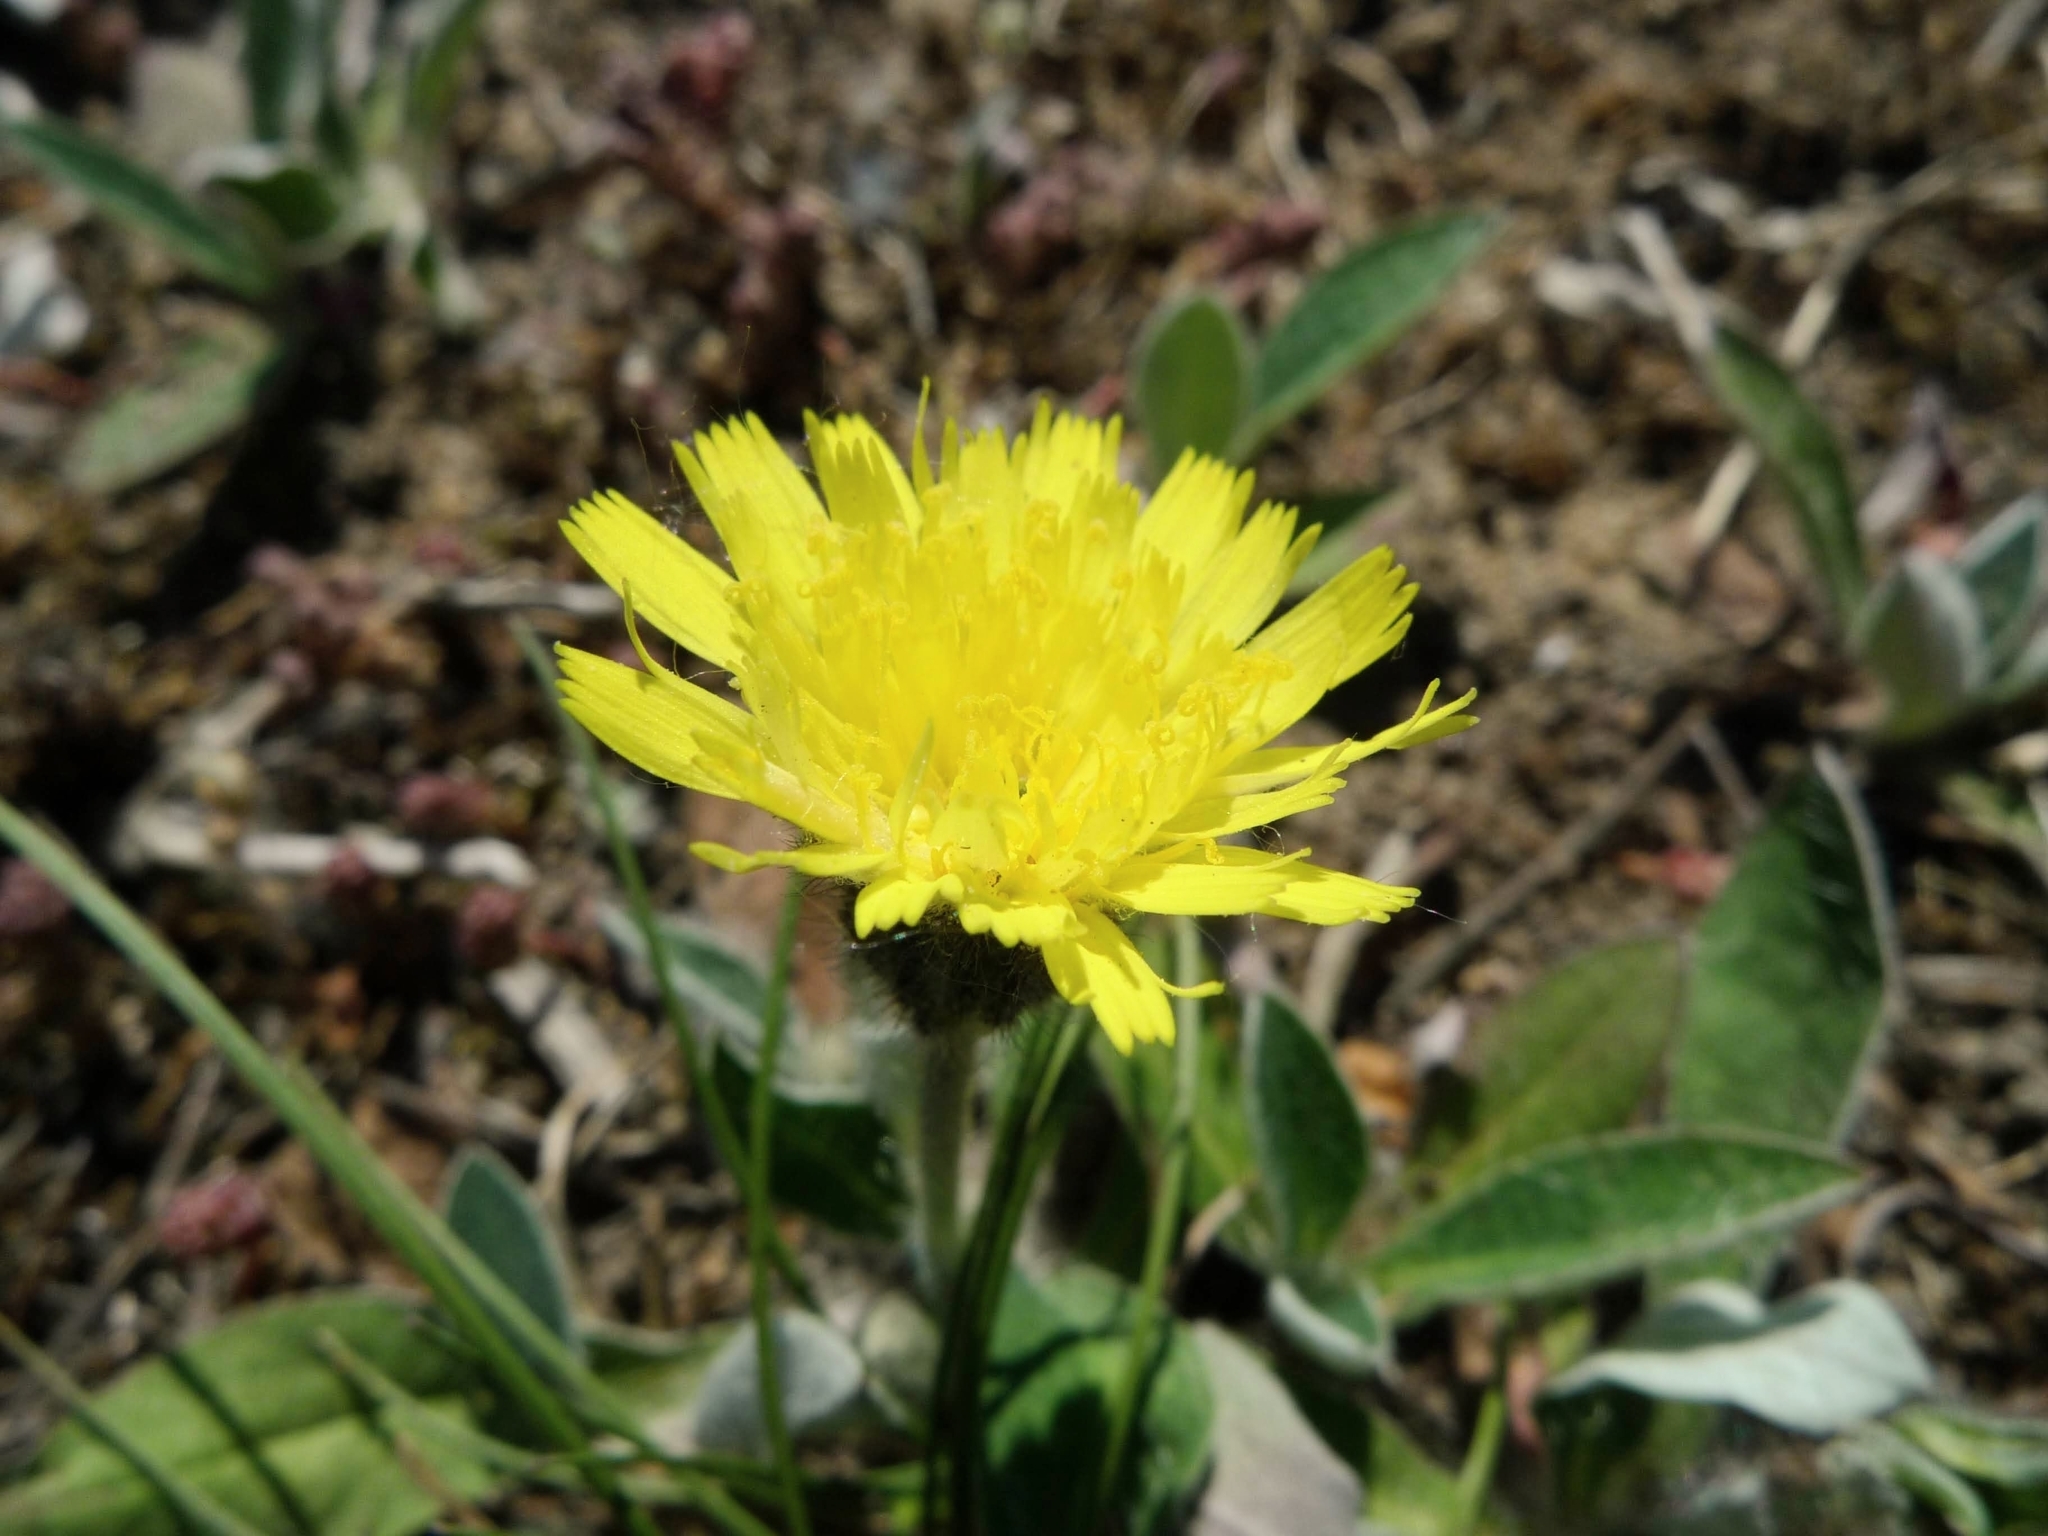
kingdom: Plantae
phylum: Tracheophyta
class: Magnoliopsida
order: Asterales
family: Asteraceae
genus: Pilosella
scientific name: Pilosella officinarum
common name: Mouse-ear hawkweed
